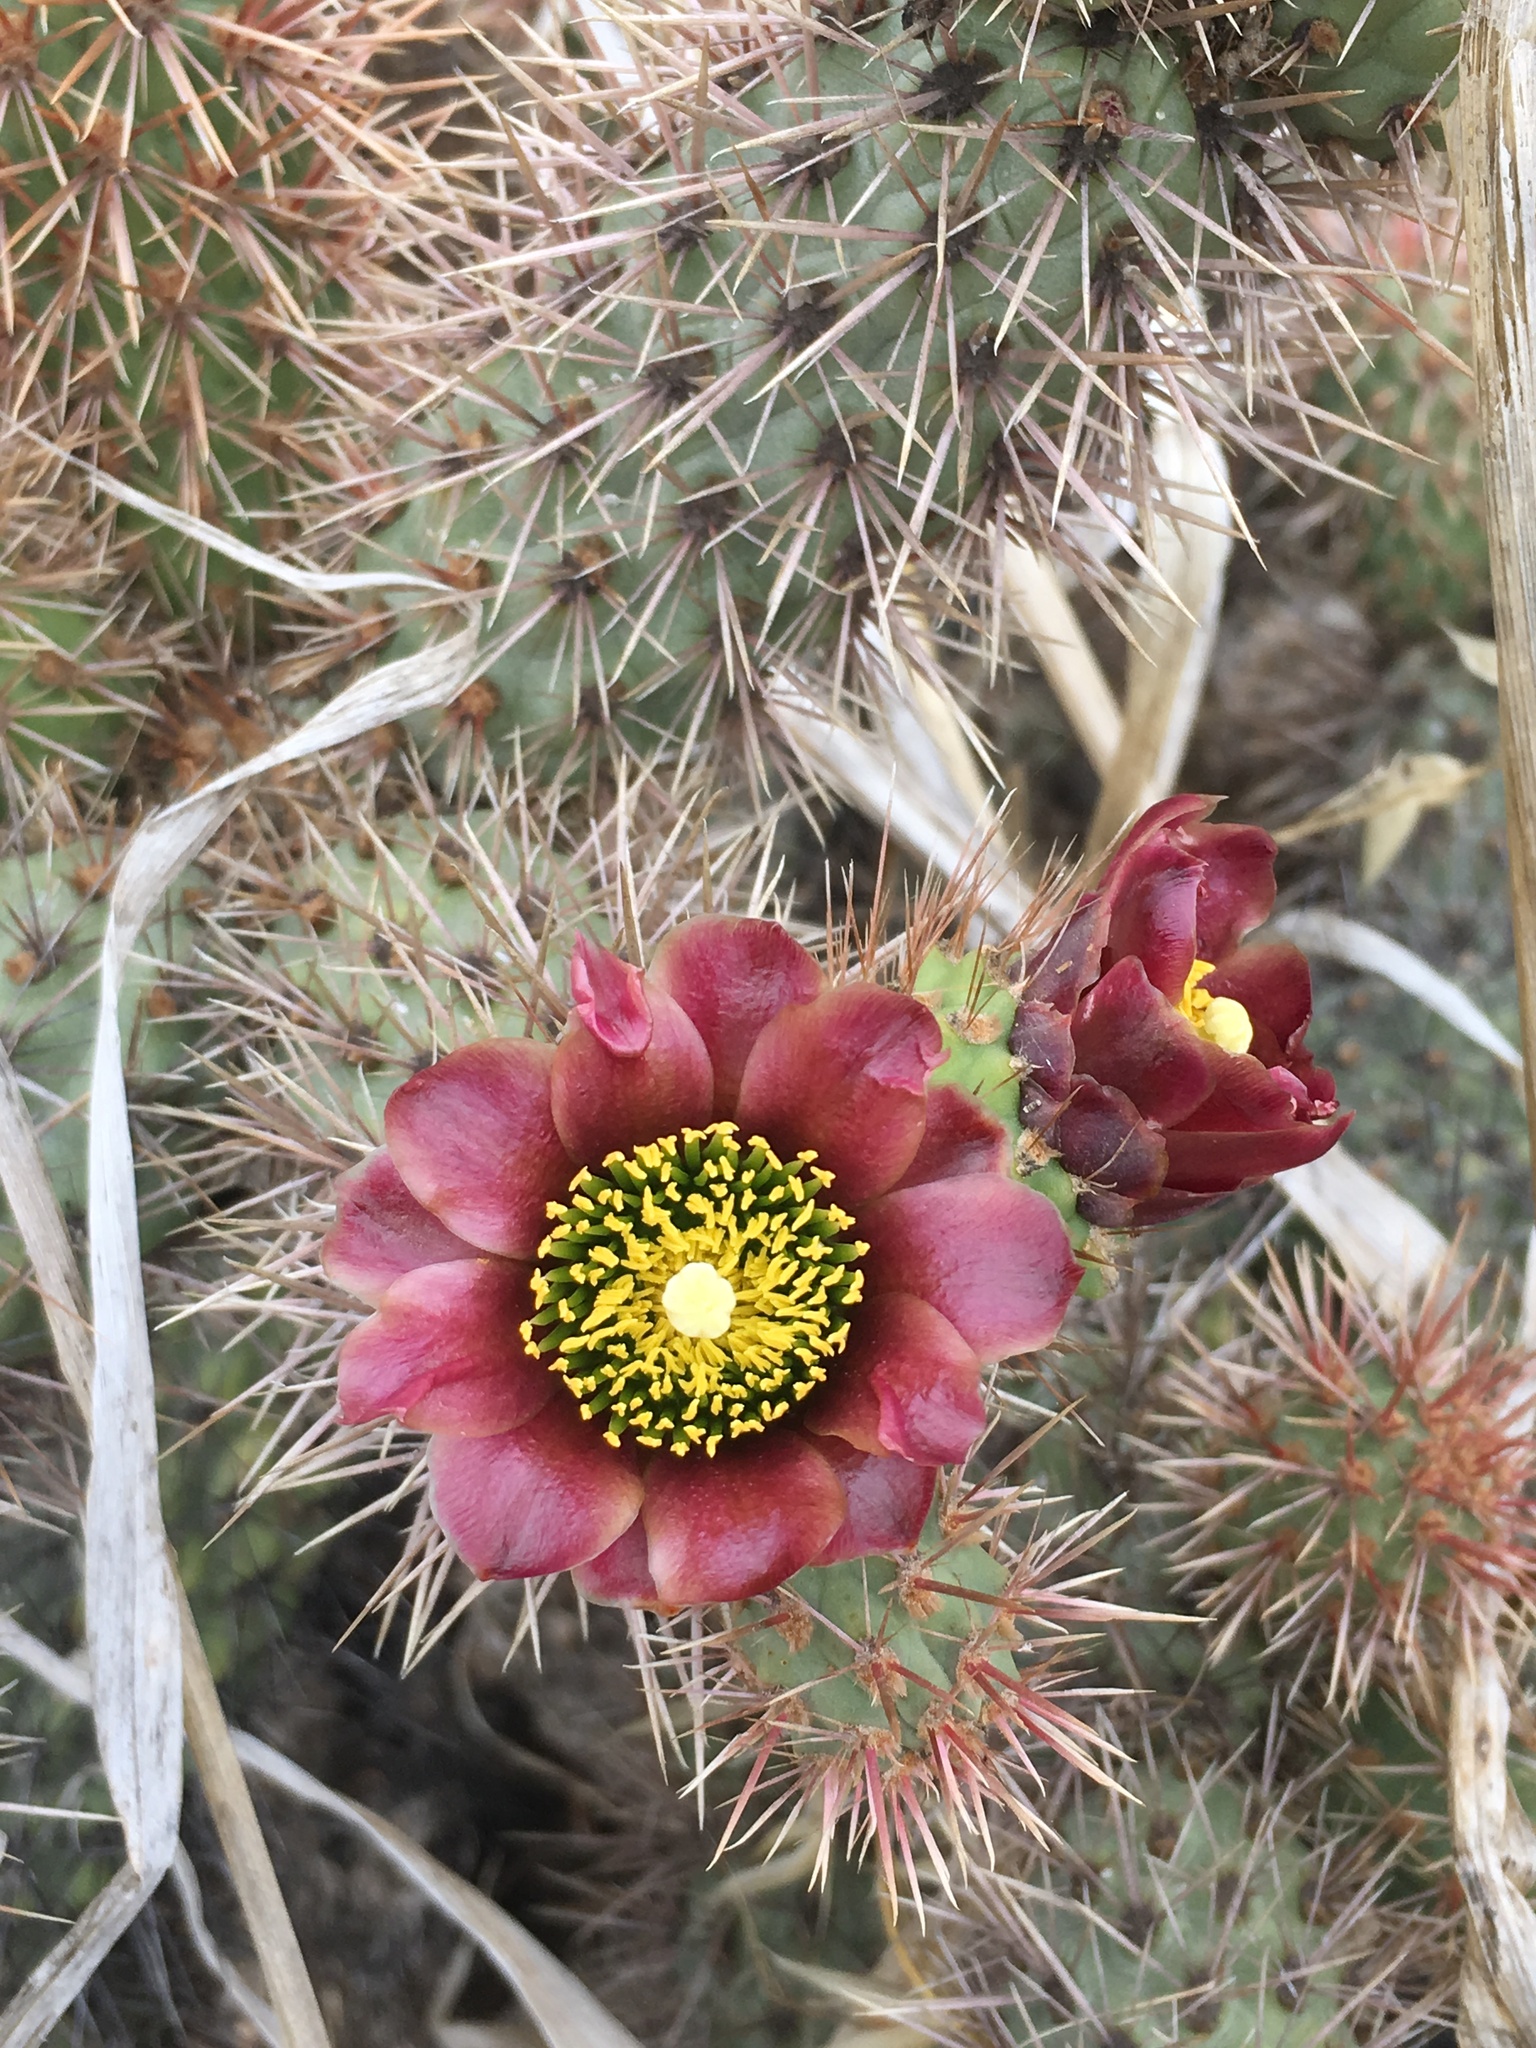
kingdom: Plantae
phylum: Tracheophyta
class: Magnoliopsida
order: Caryophyllales
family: Cactaceae
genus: Cylindropuntia
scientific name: Cylindropuntia prolifera
